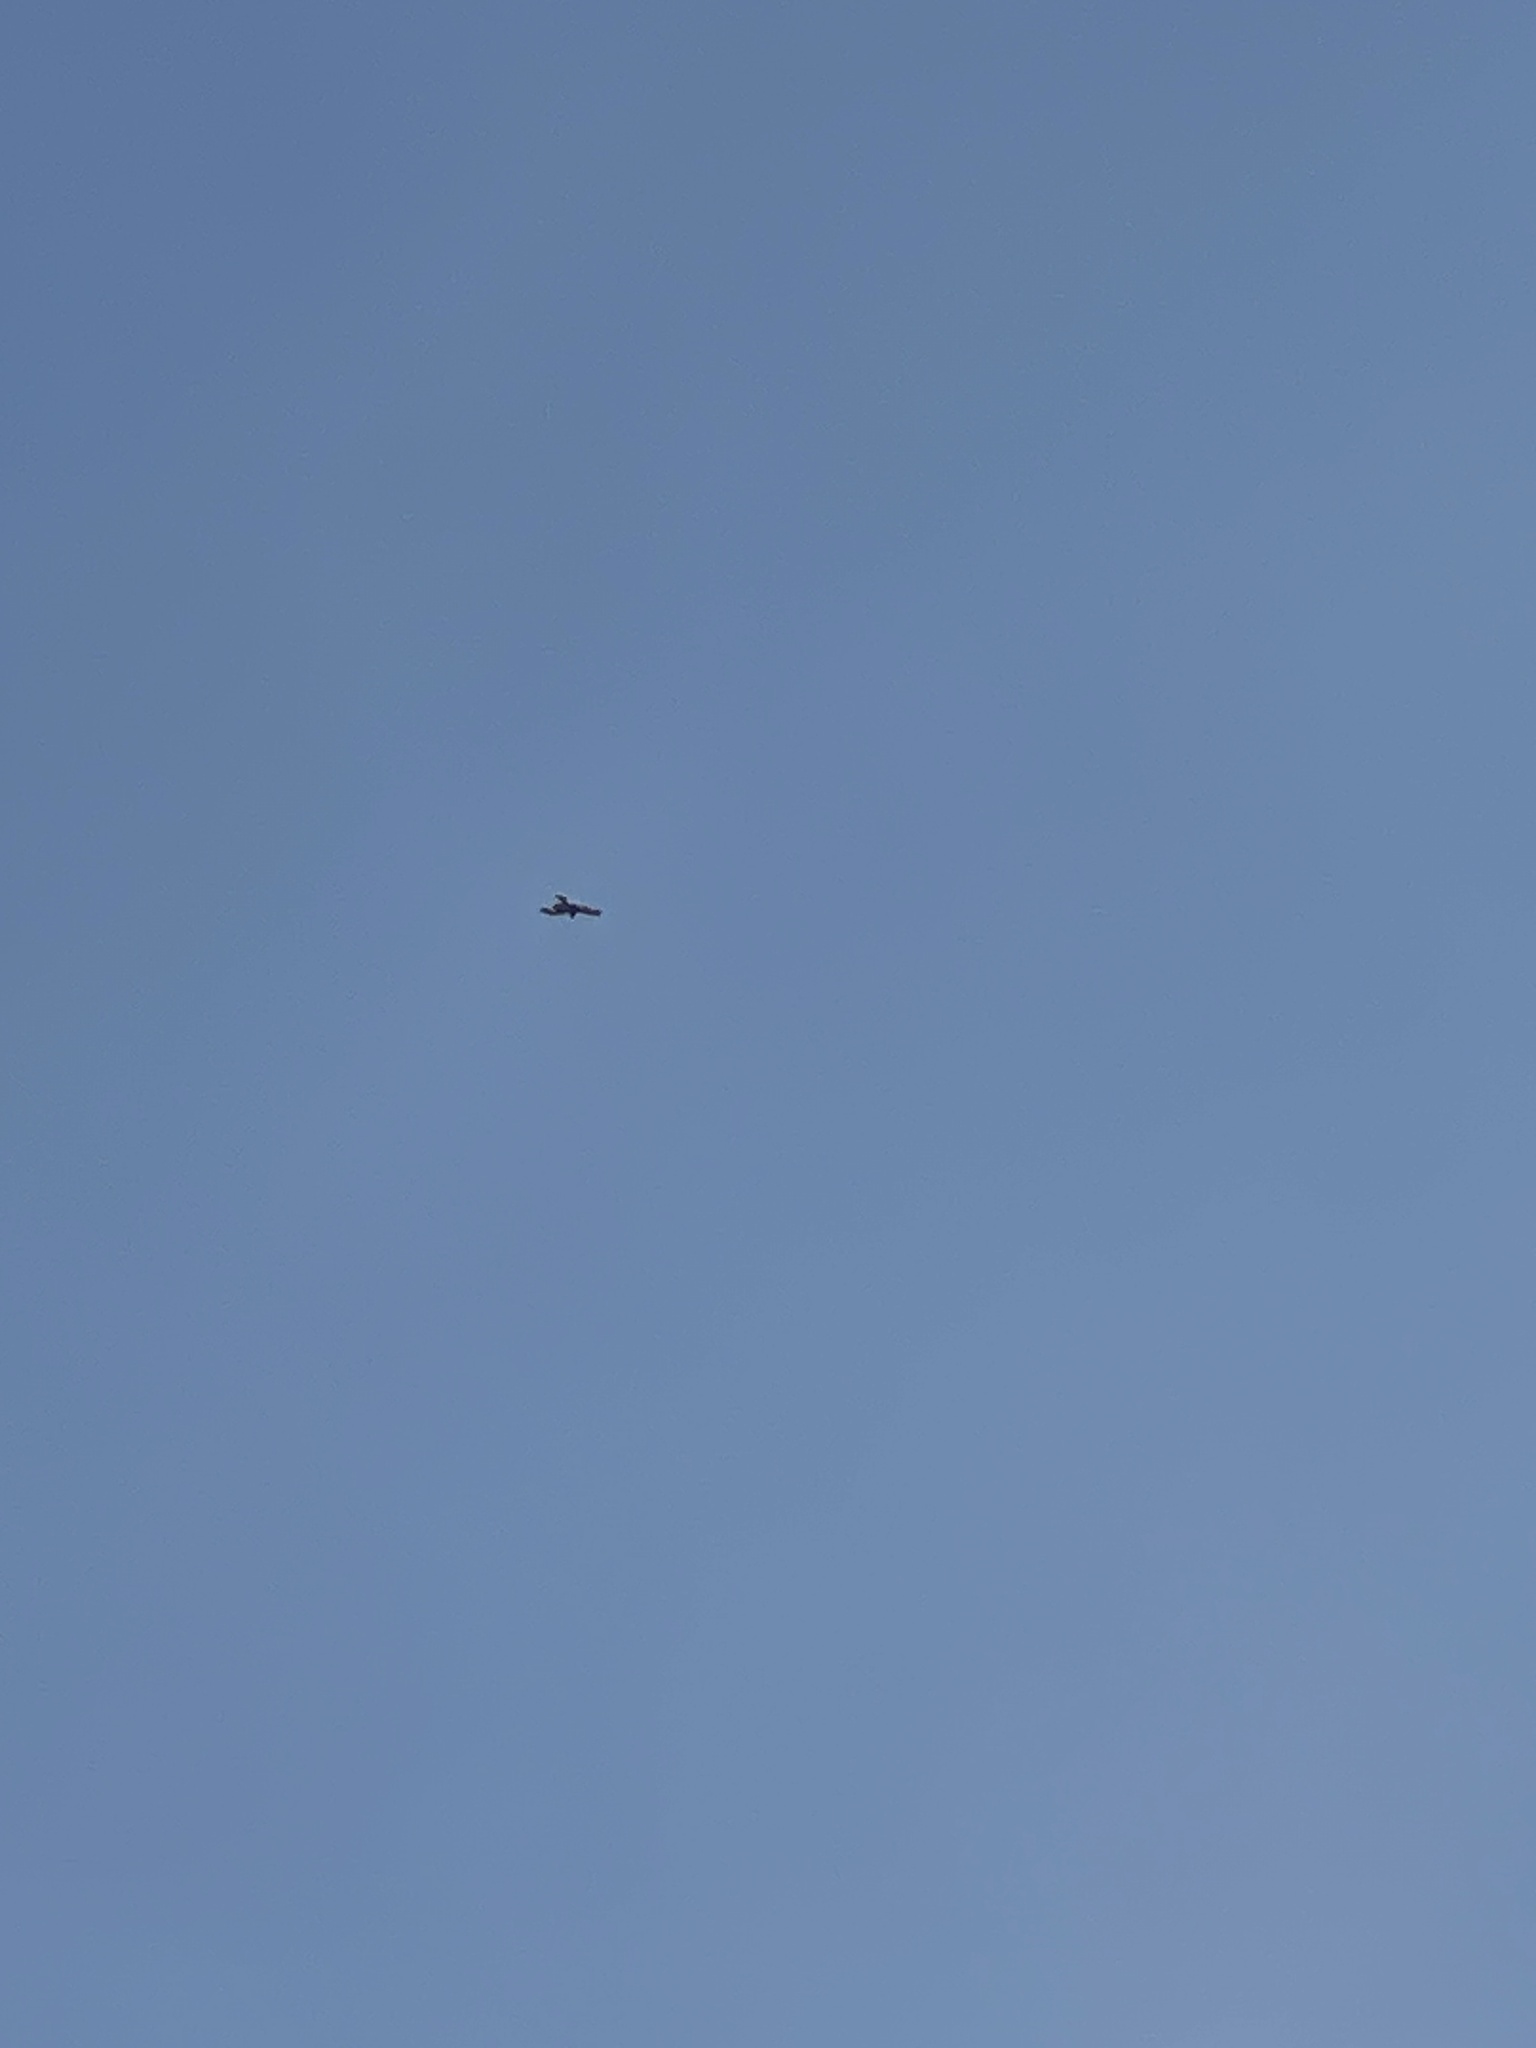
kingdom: Animalia
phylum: Chordata
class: Aves
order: Accipitriformes
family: Accipitridae
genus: Milvus
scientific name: Milvus migrans
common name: Black kite
